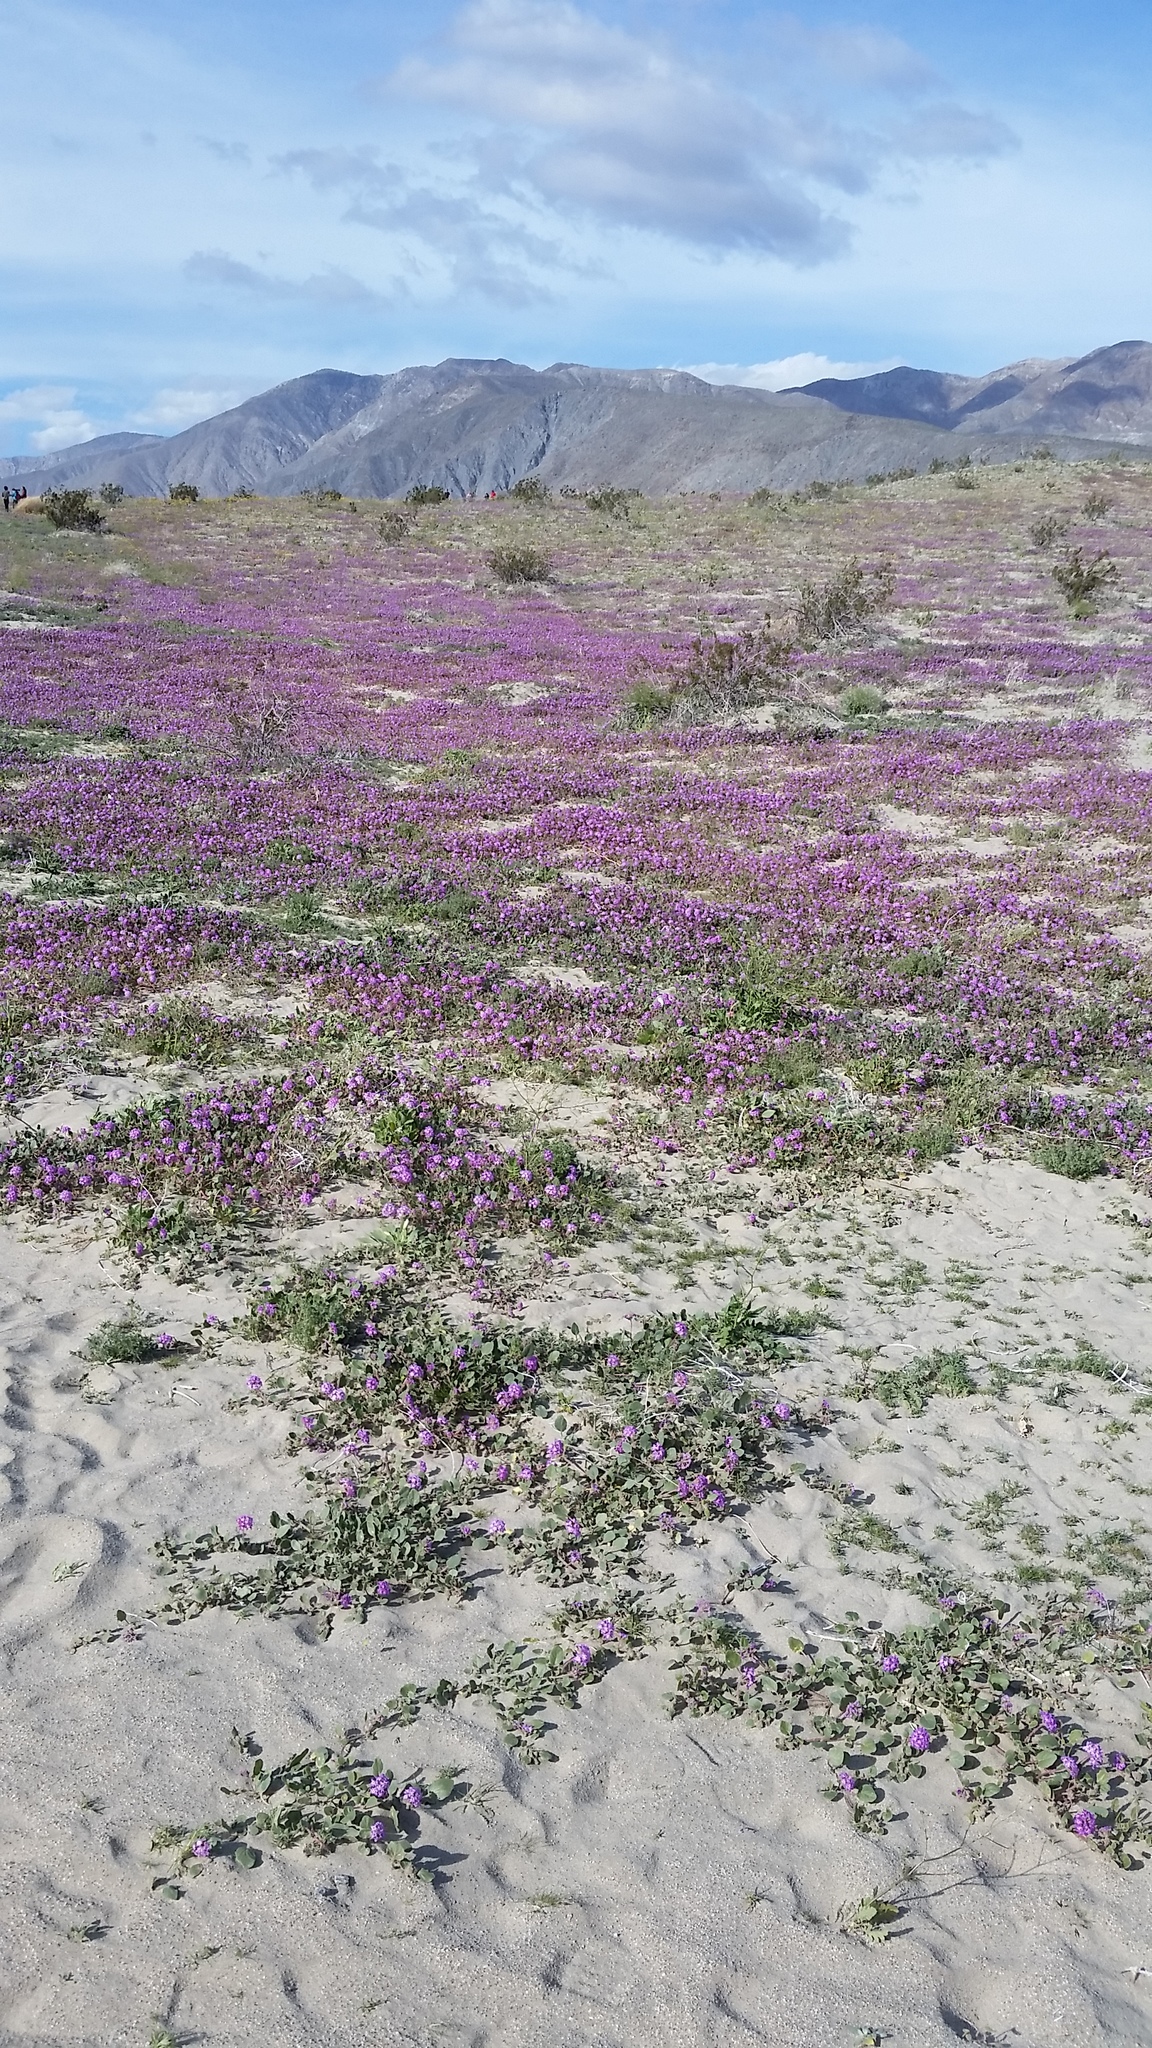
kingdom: Plantae
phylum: Tracheophyta
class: Magnoliopsida
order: Caryophyllales
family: Nyctaginaceae
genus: Abronia
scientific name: Abronia villosa
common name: Desert sand-verbena
